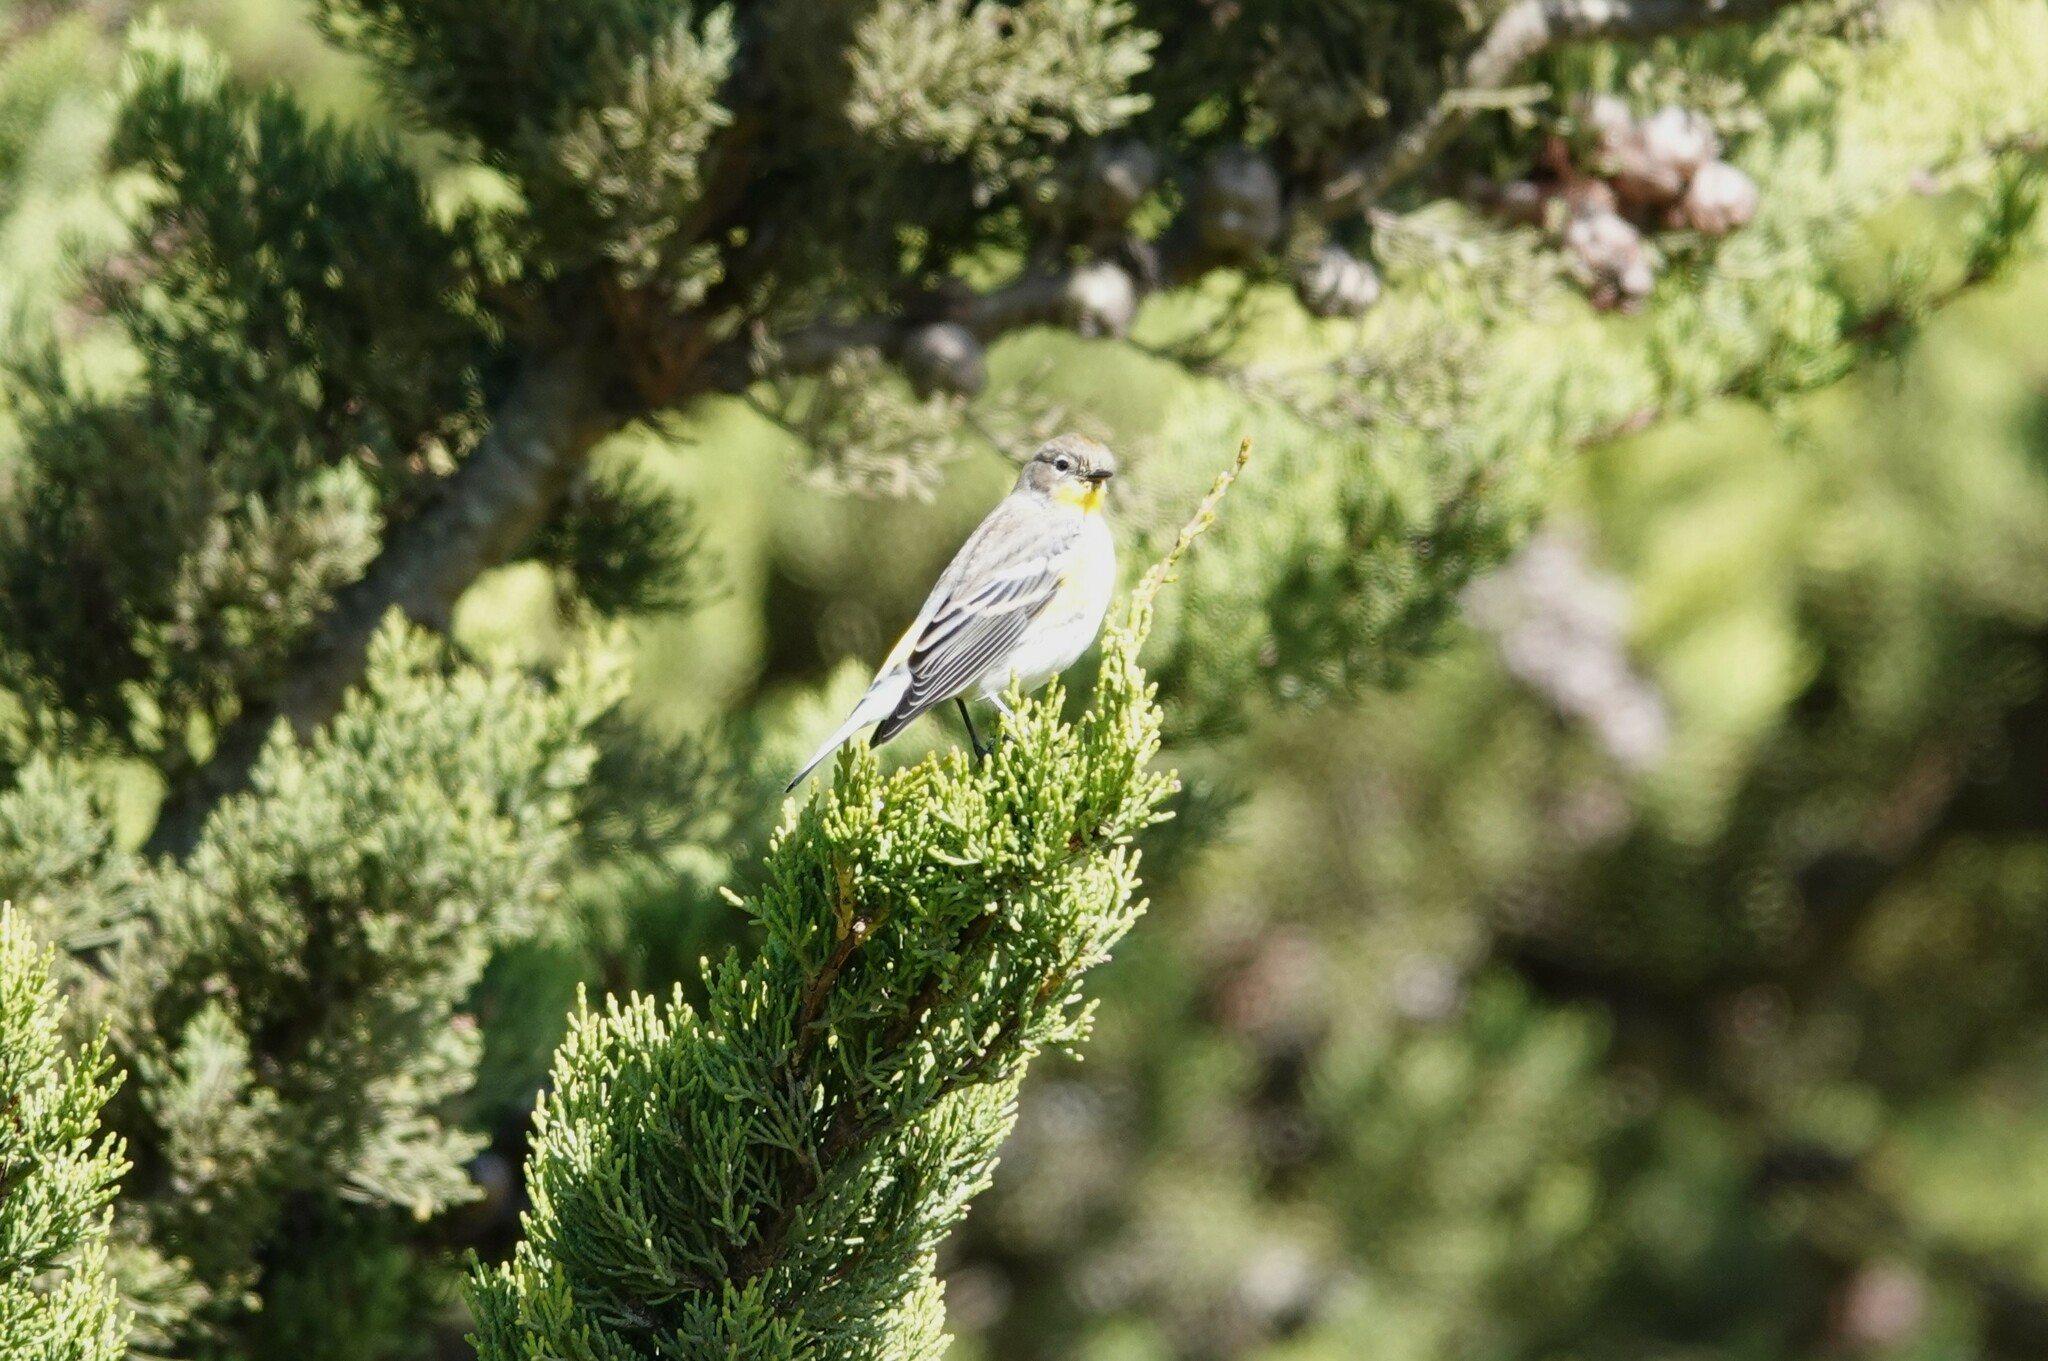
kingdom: Animalia
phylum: Chordata
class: Aves
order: Passeriformes
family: Parulidae
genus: Setophaga
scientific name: Setophaga coronata
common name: Myrtle warbler
